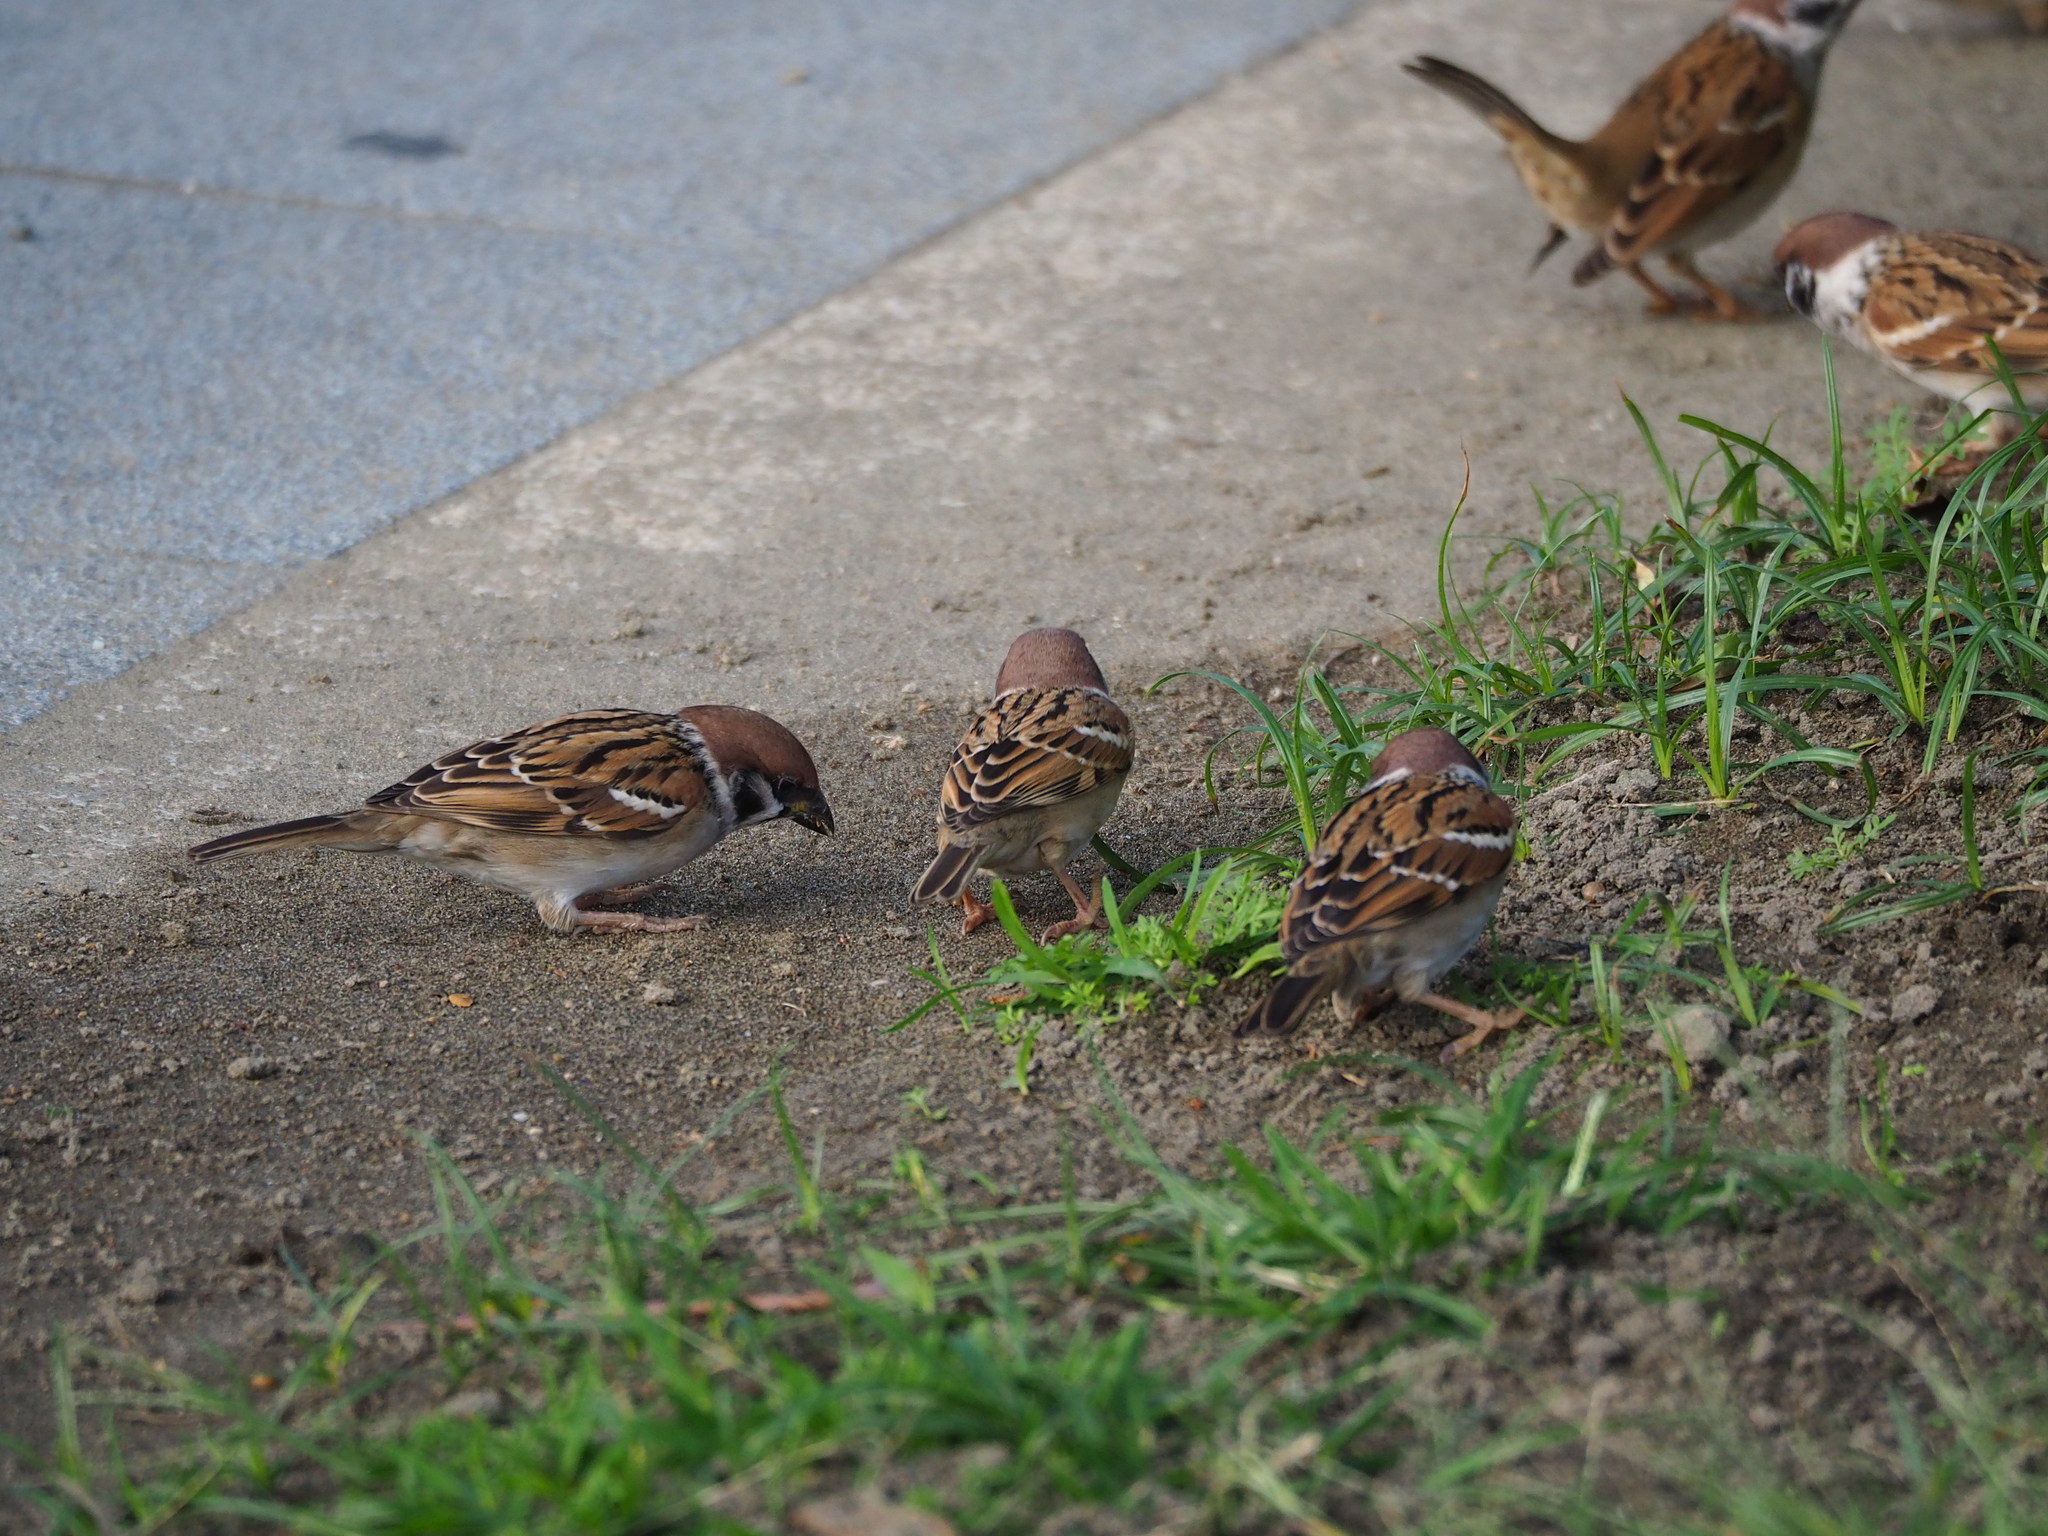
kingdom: Animalia
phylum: Chordata
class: Aves
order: Passeriformes
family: Passeridae
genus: Passer
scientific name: Passer montanus
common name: Eurasian tree sparrow
